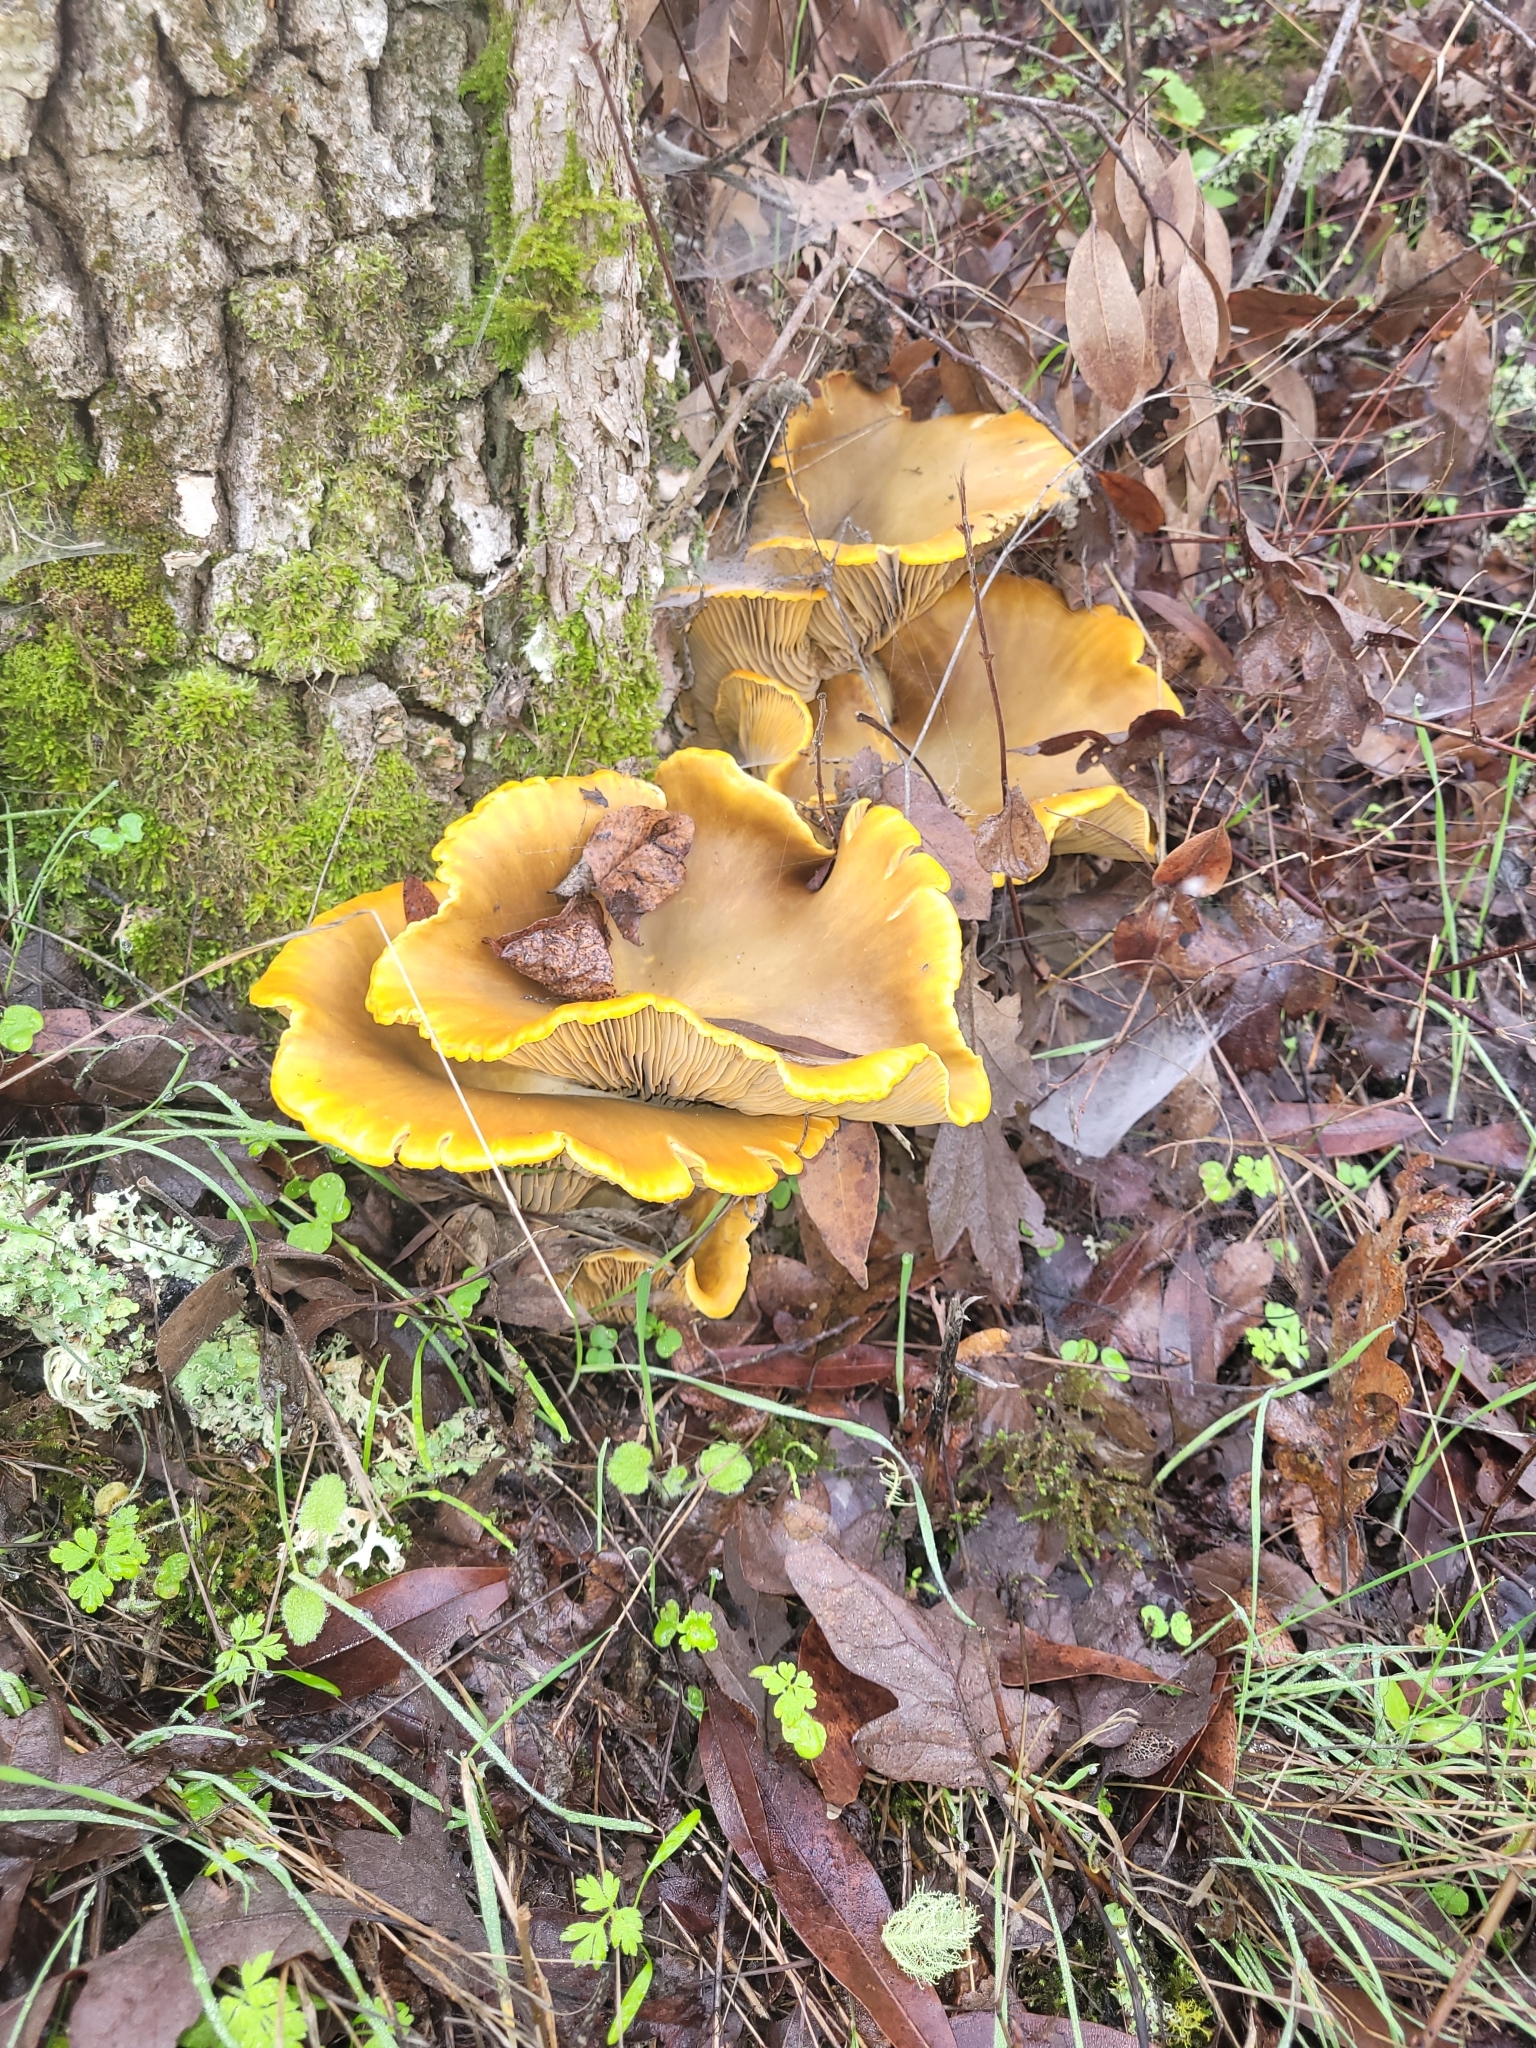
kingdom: Fungi
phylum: Basidiomycota
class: Agaricomycetes
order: Agaricales
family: Omphalotaceae
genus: Omphalotus
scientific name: Omphalotus olivascens
